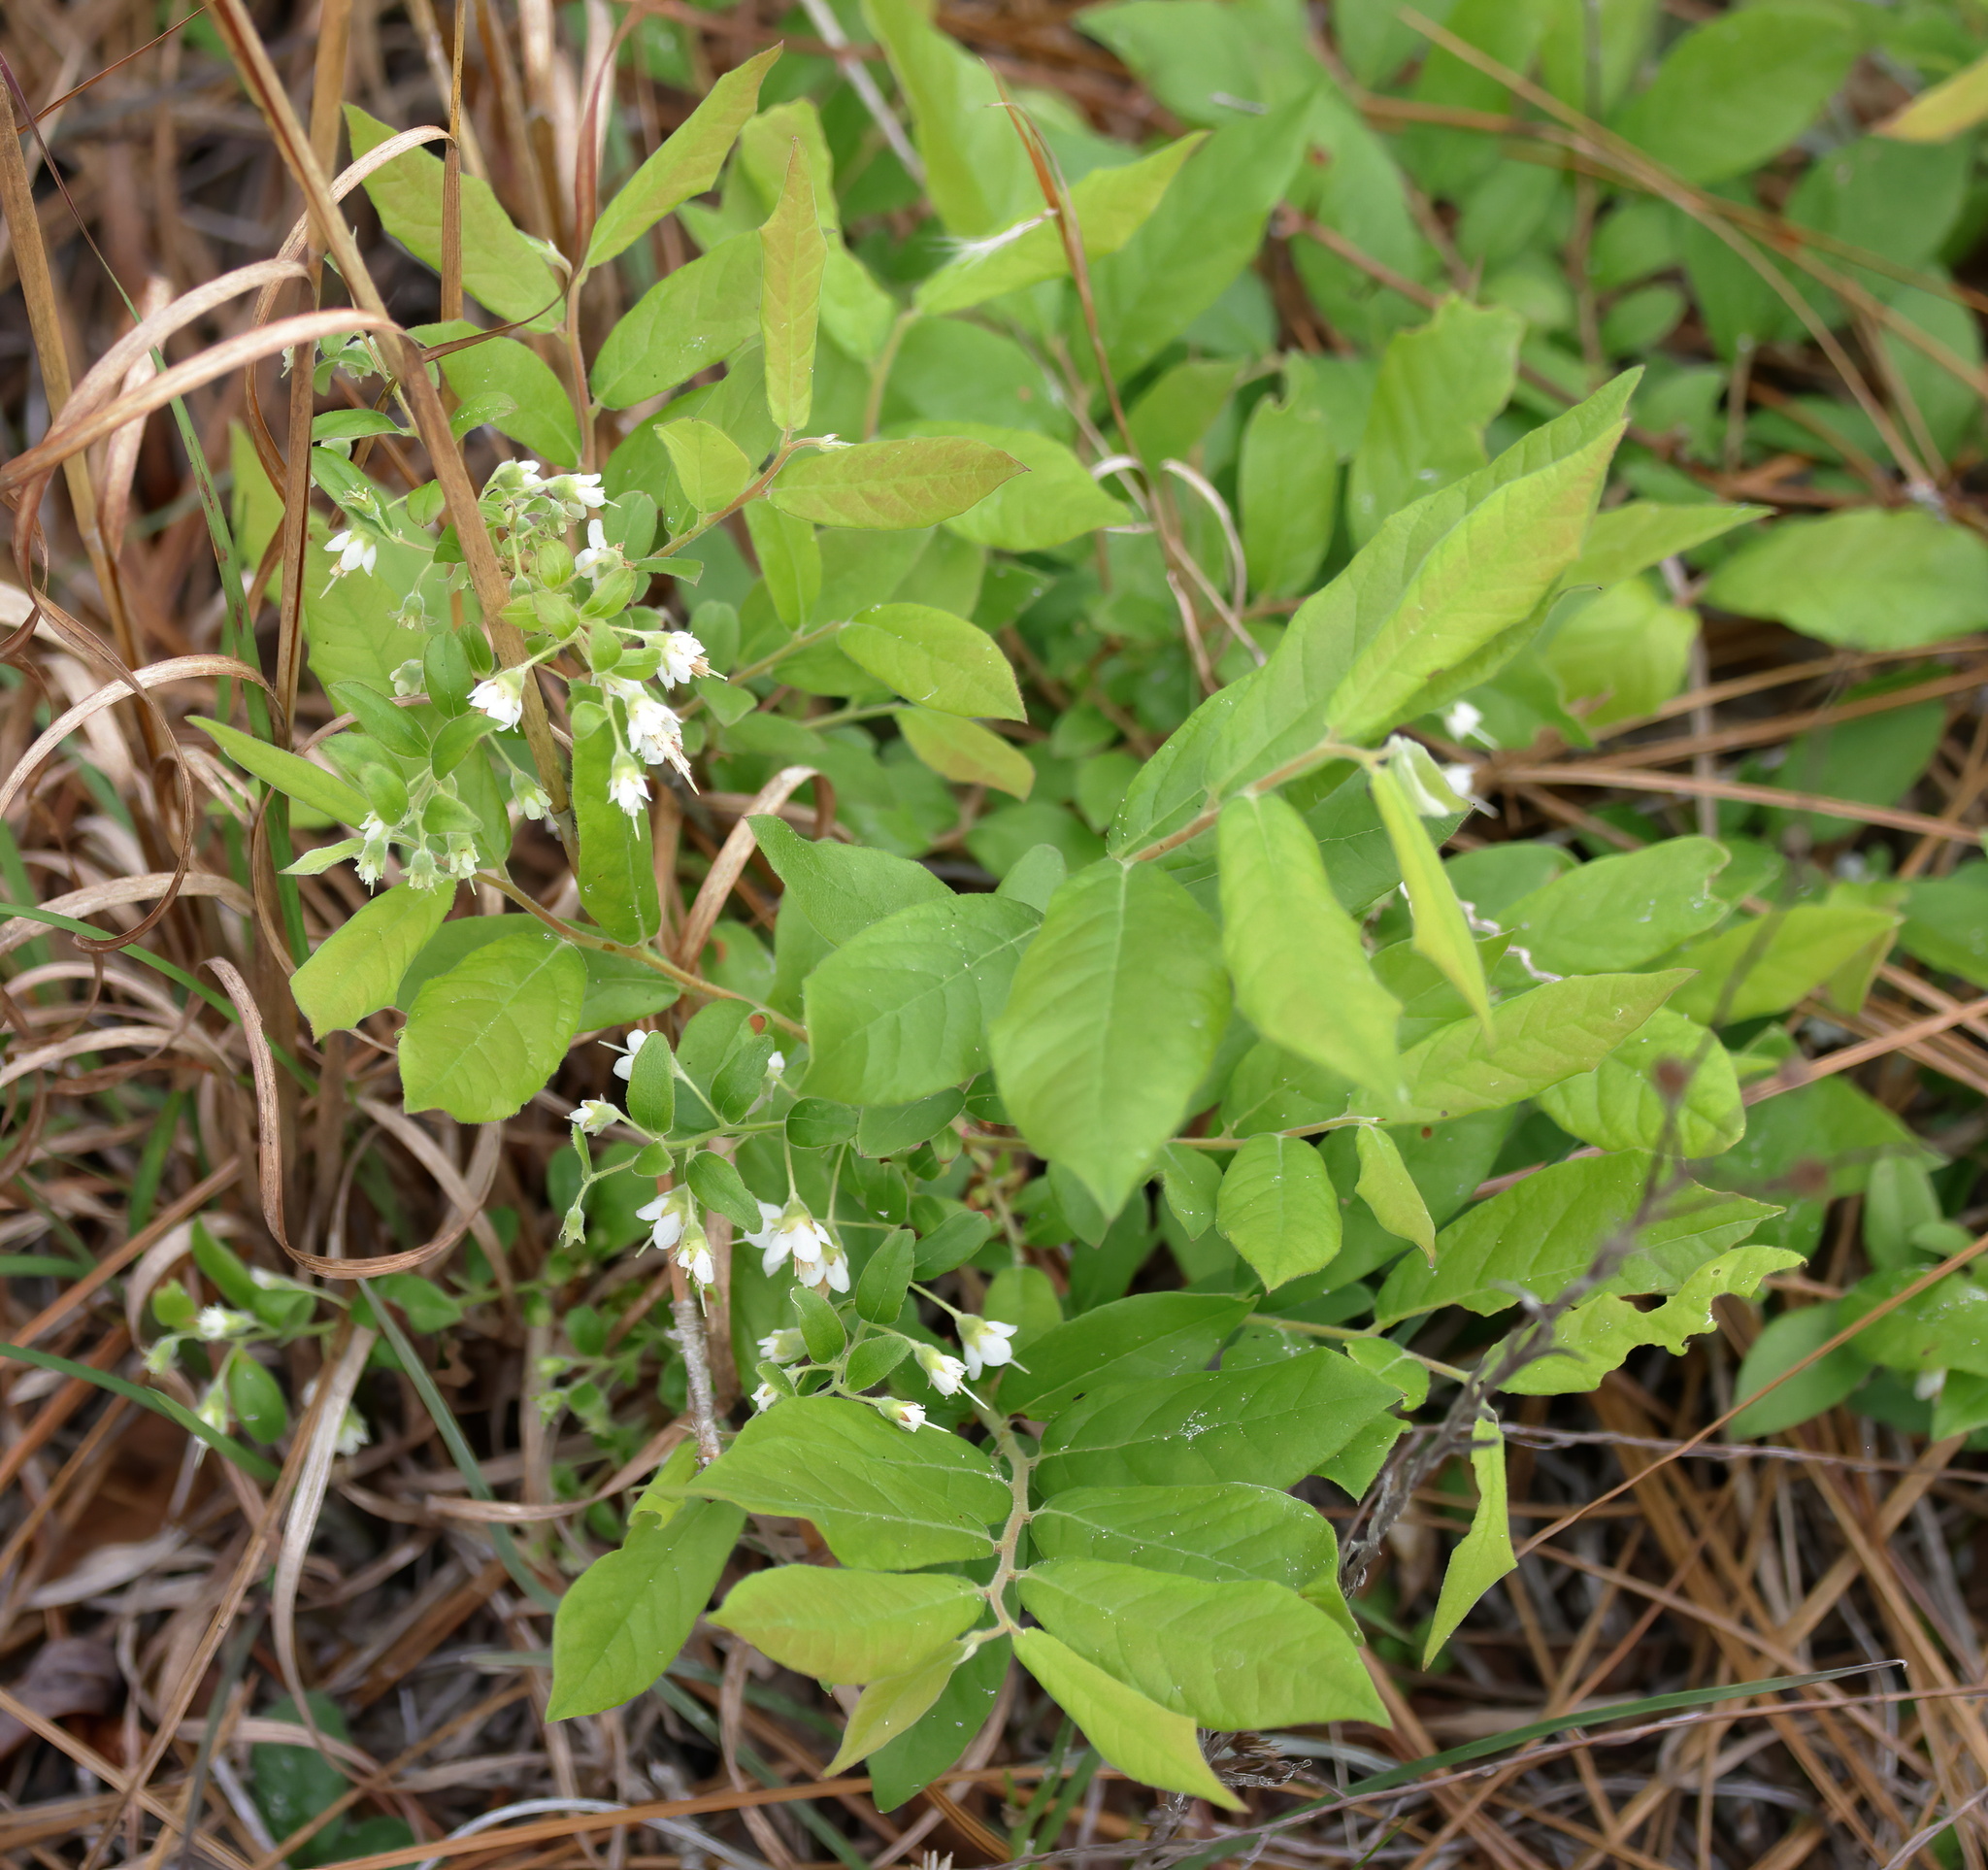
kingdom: Plantae
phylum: Tracheophyta
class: Magnoliopsida
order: Ericales
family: Ericaceae
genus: Vaccinium
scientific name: Vaccinium stamineum
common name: Deerberry
